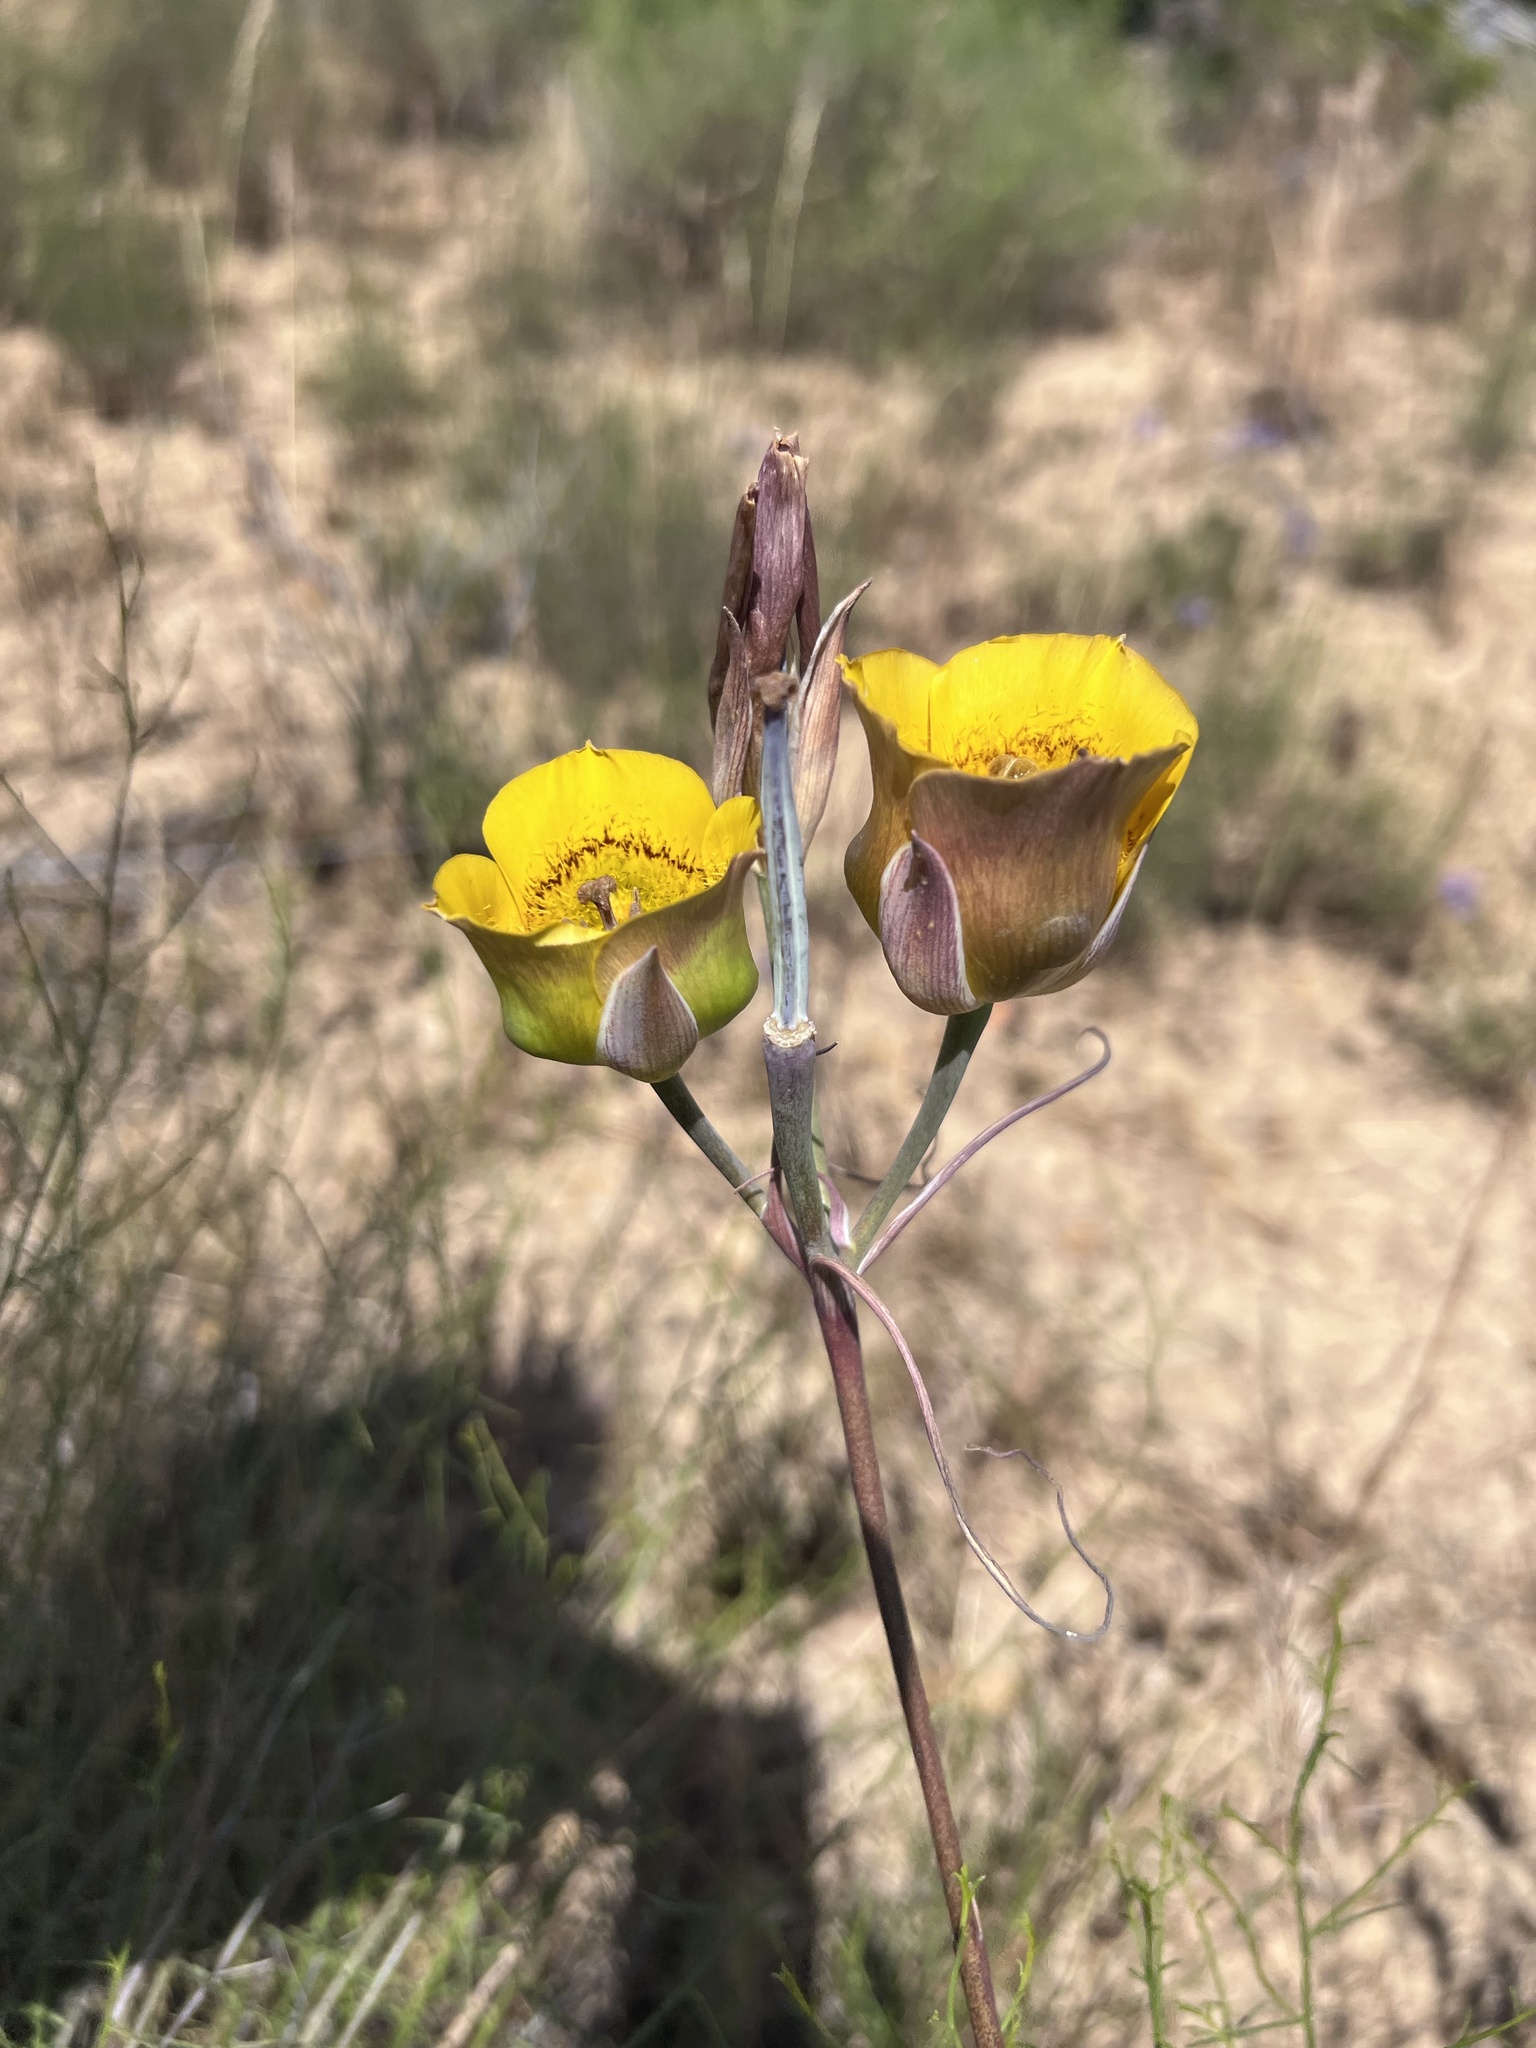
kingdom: Plantae
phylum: Tracheophyta
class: Liliopsida
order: Liliales
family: Liliaceae
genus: Calochortus
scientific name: Calochortus clavatus
